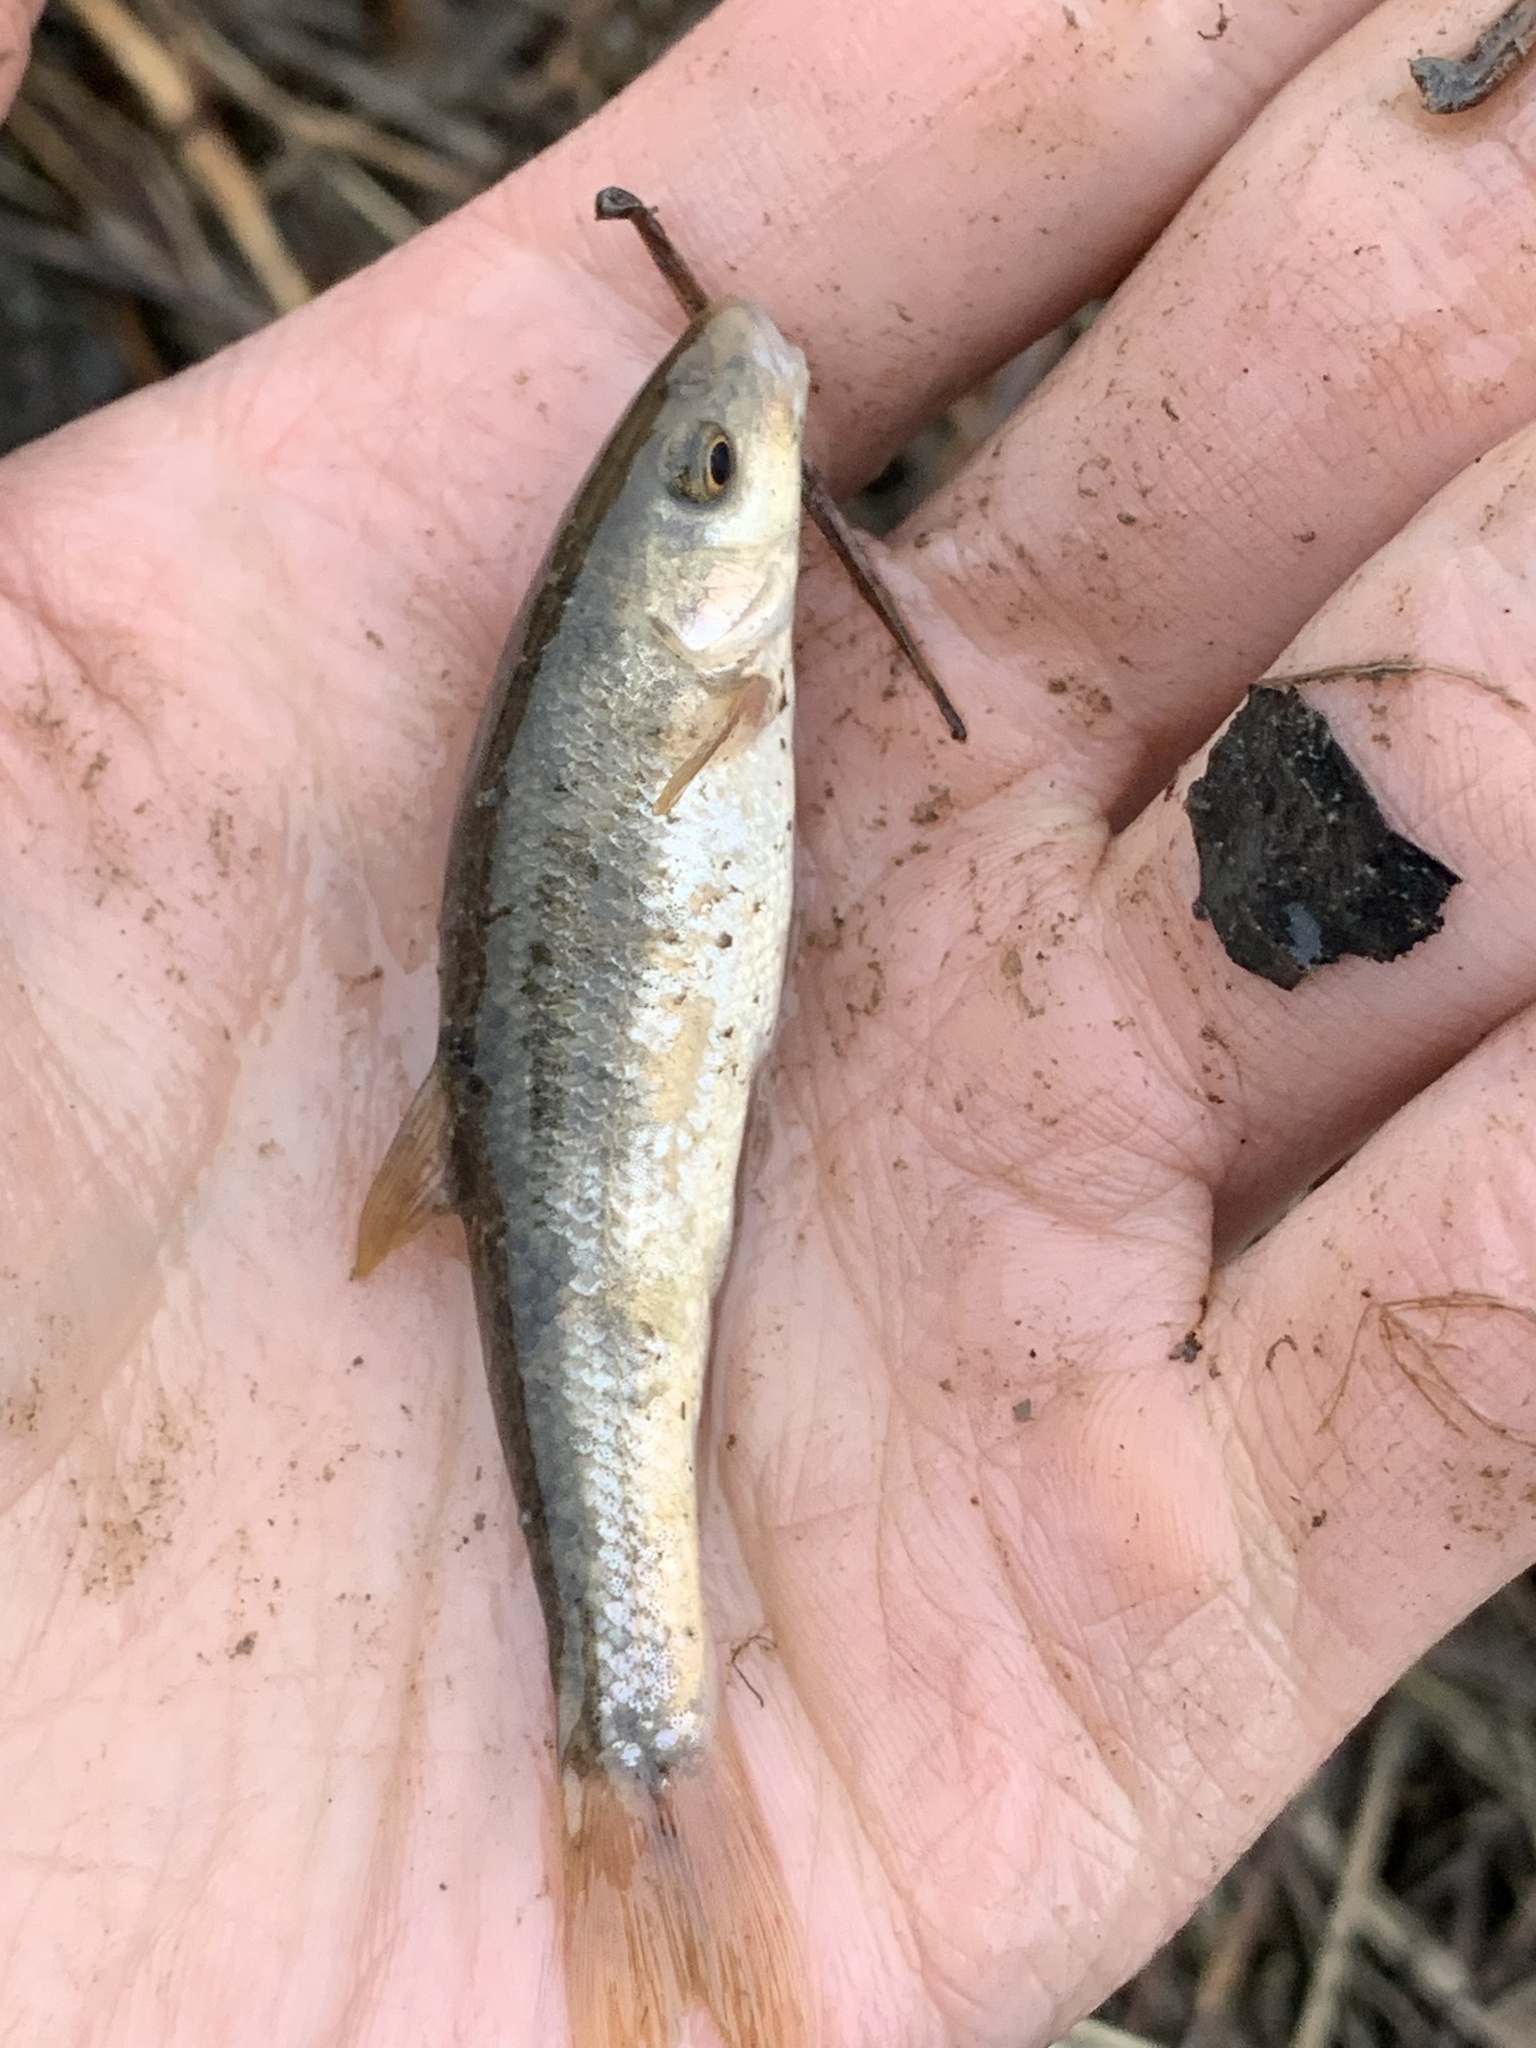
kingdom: Animalia
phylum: Chordata
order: Cypriniformes
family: Cyprinidae
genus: Campostoma
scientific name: Campostoma anomalum
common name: Central stoneroller
